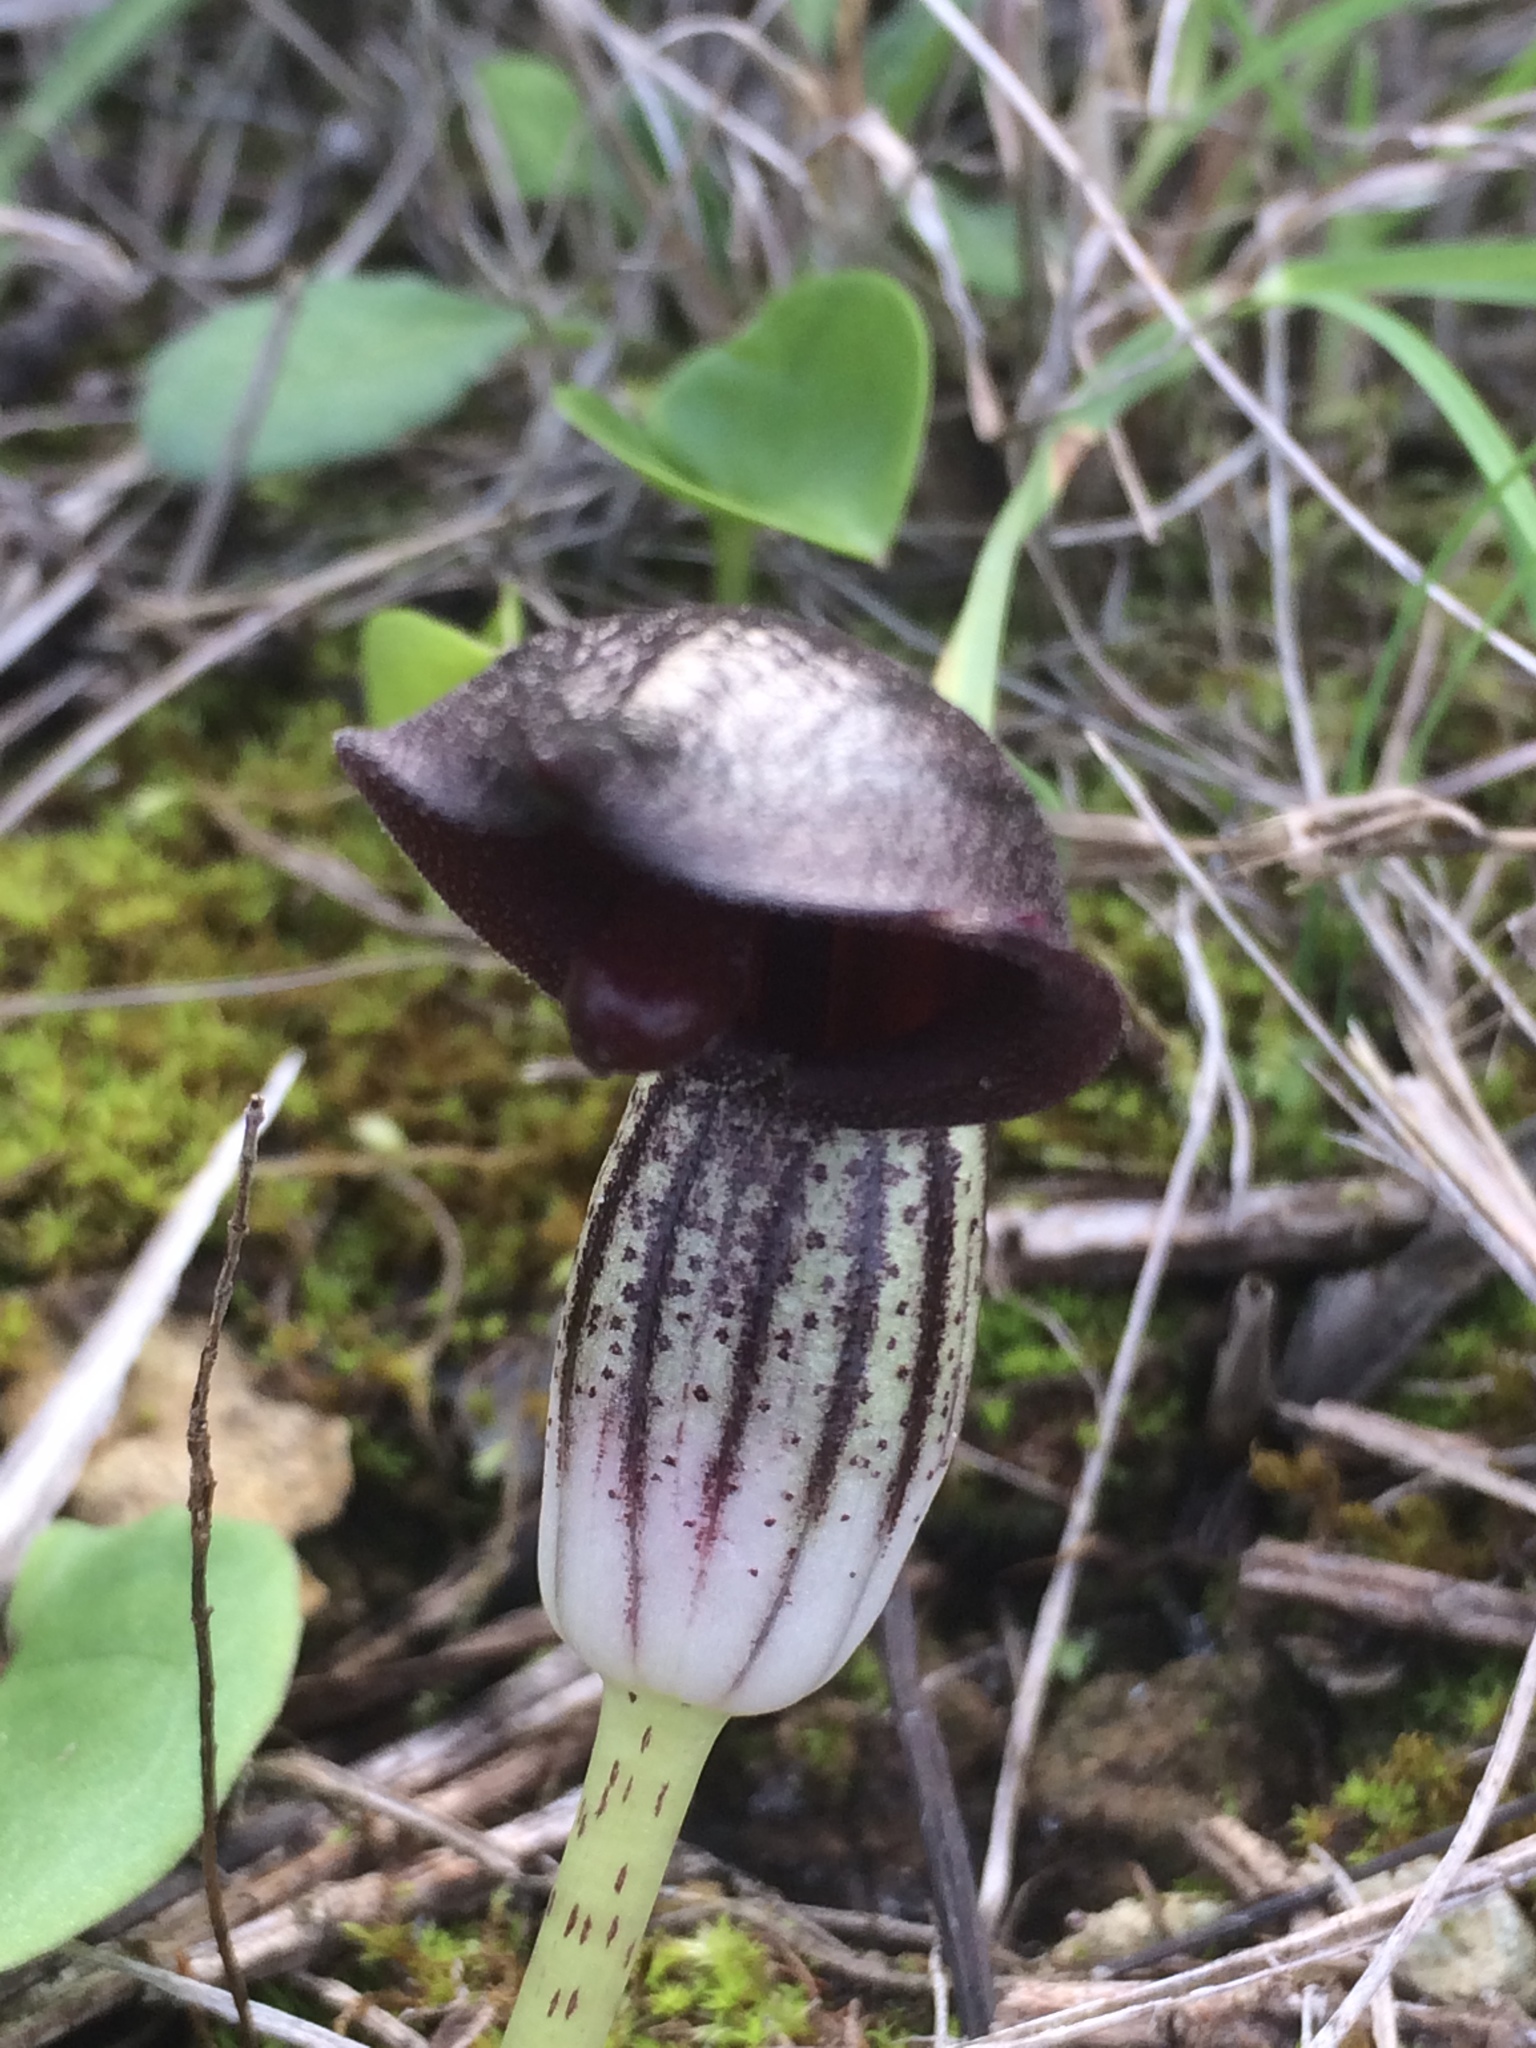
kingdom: Plantae
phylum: Tracheophyta
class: Liliopsida
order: Alismatales
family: Araceae
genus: Arisarum
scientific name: Arisarum simorrhinum
